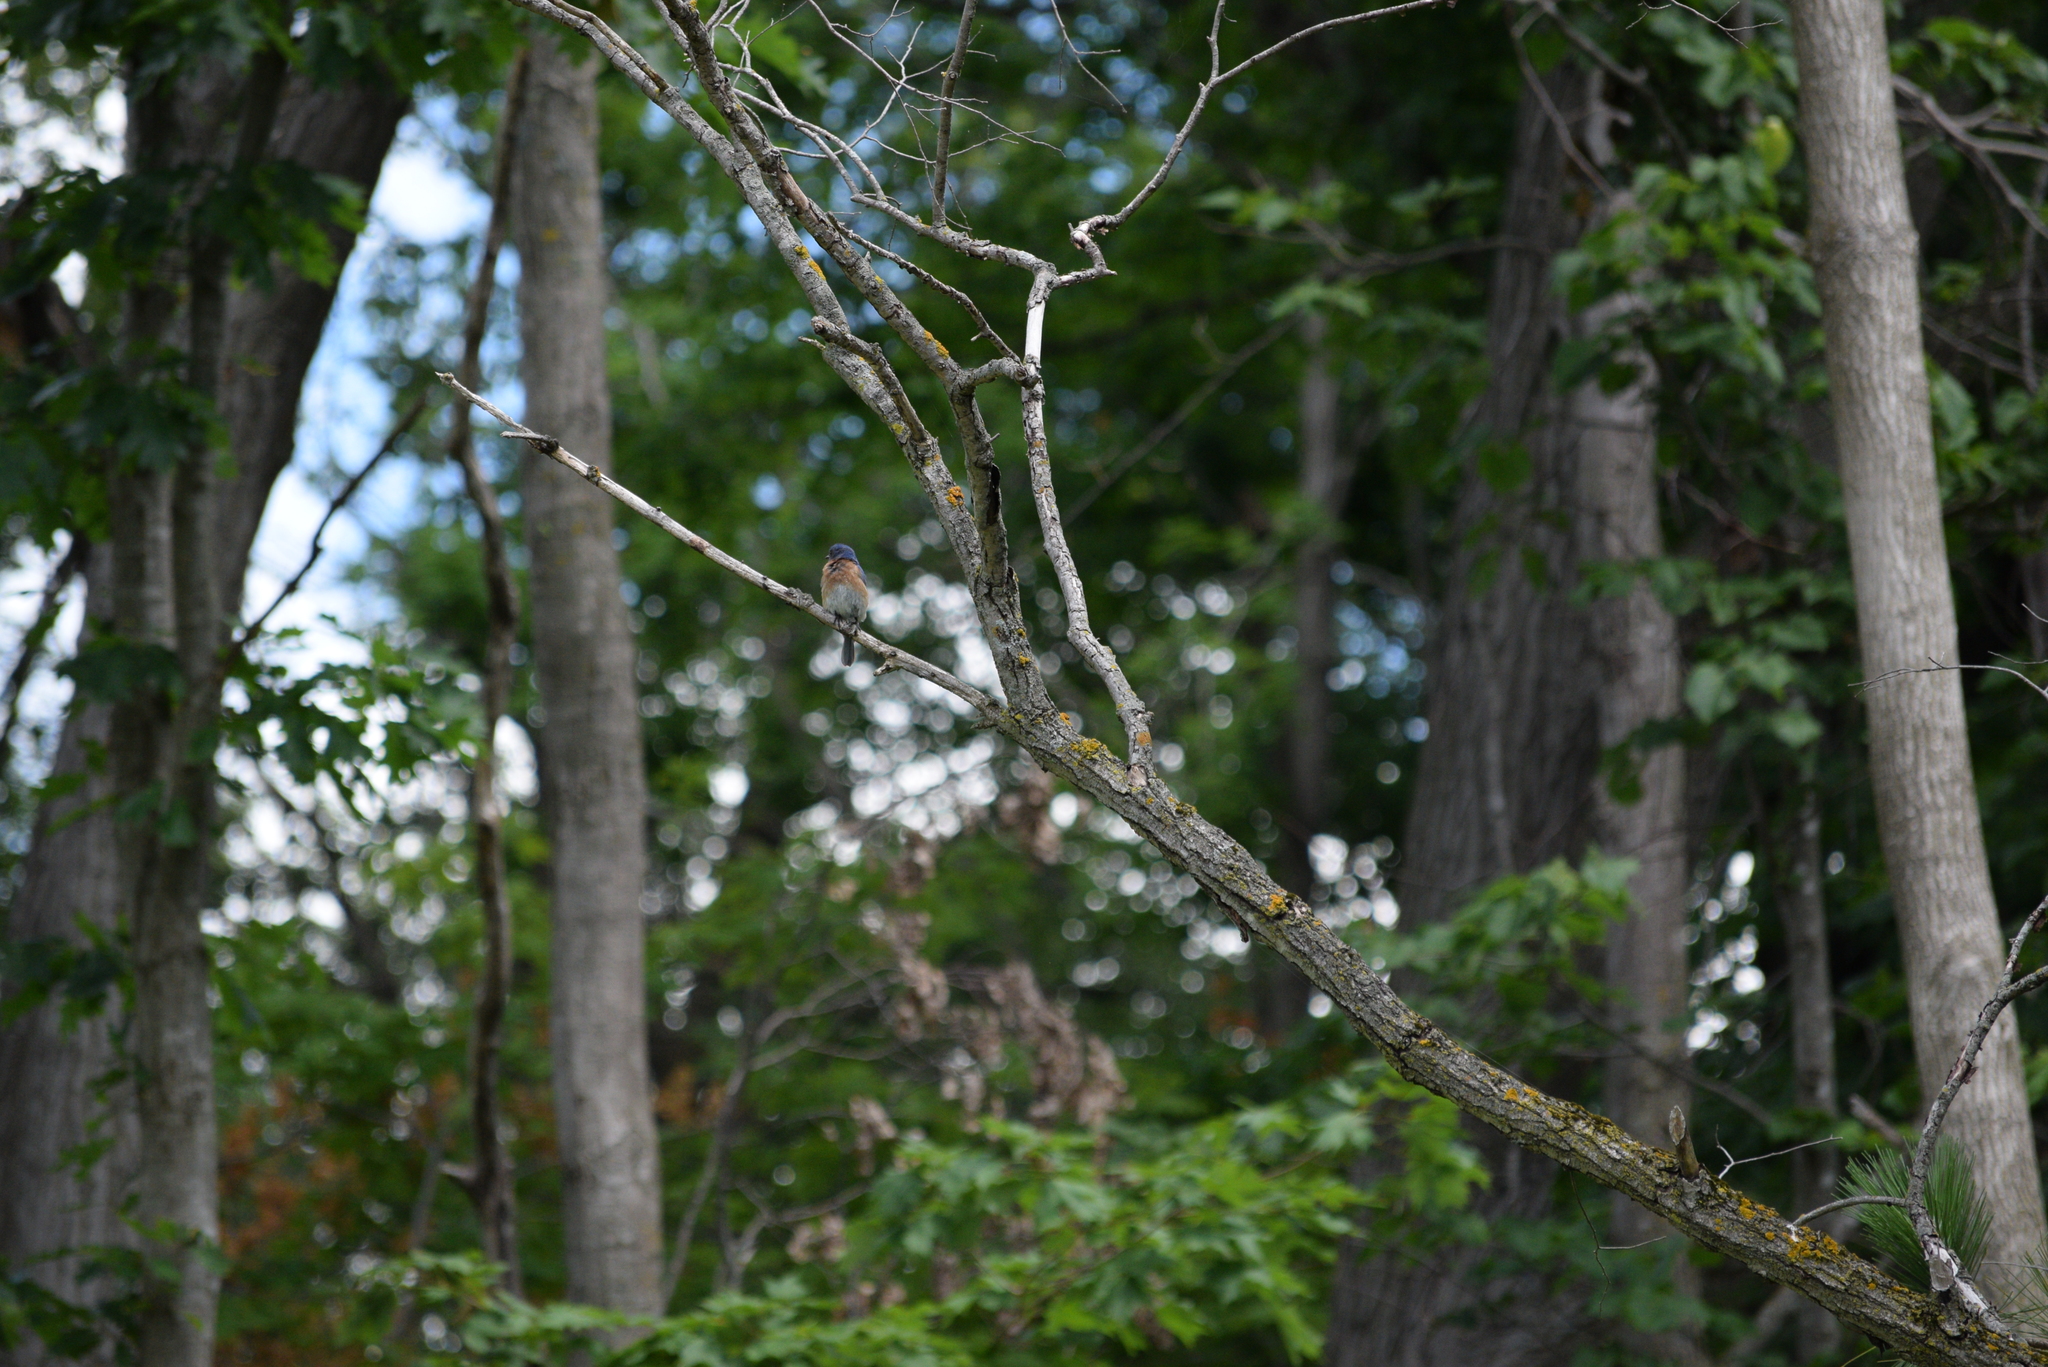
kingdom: Animalia
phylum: Chordata
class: Aves
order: Passeriformes
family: Turdidae
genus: Sialia
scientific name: Sialia sialis
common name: Eastern bluebird
